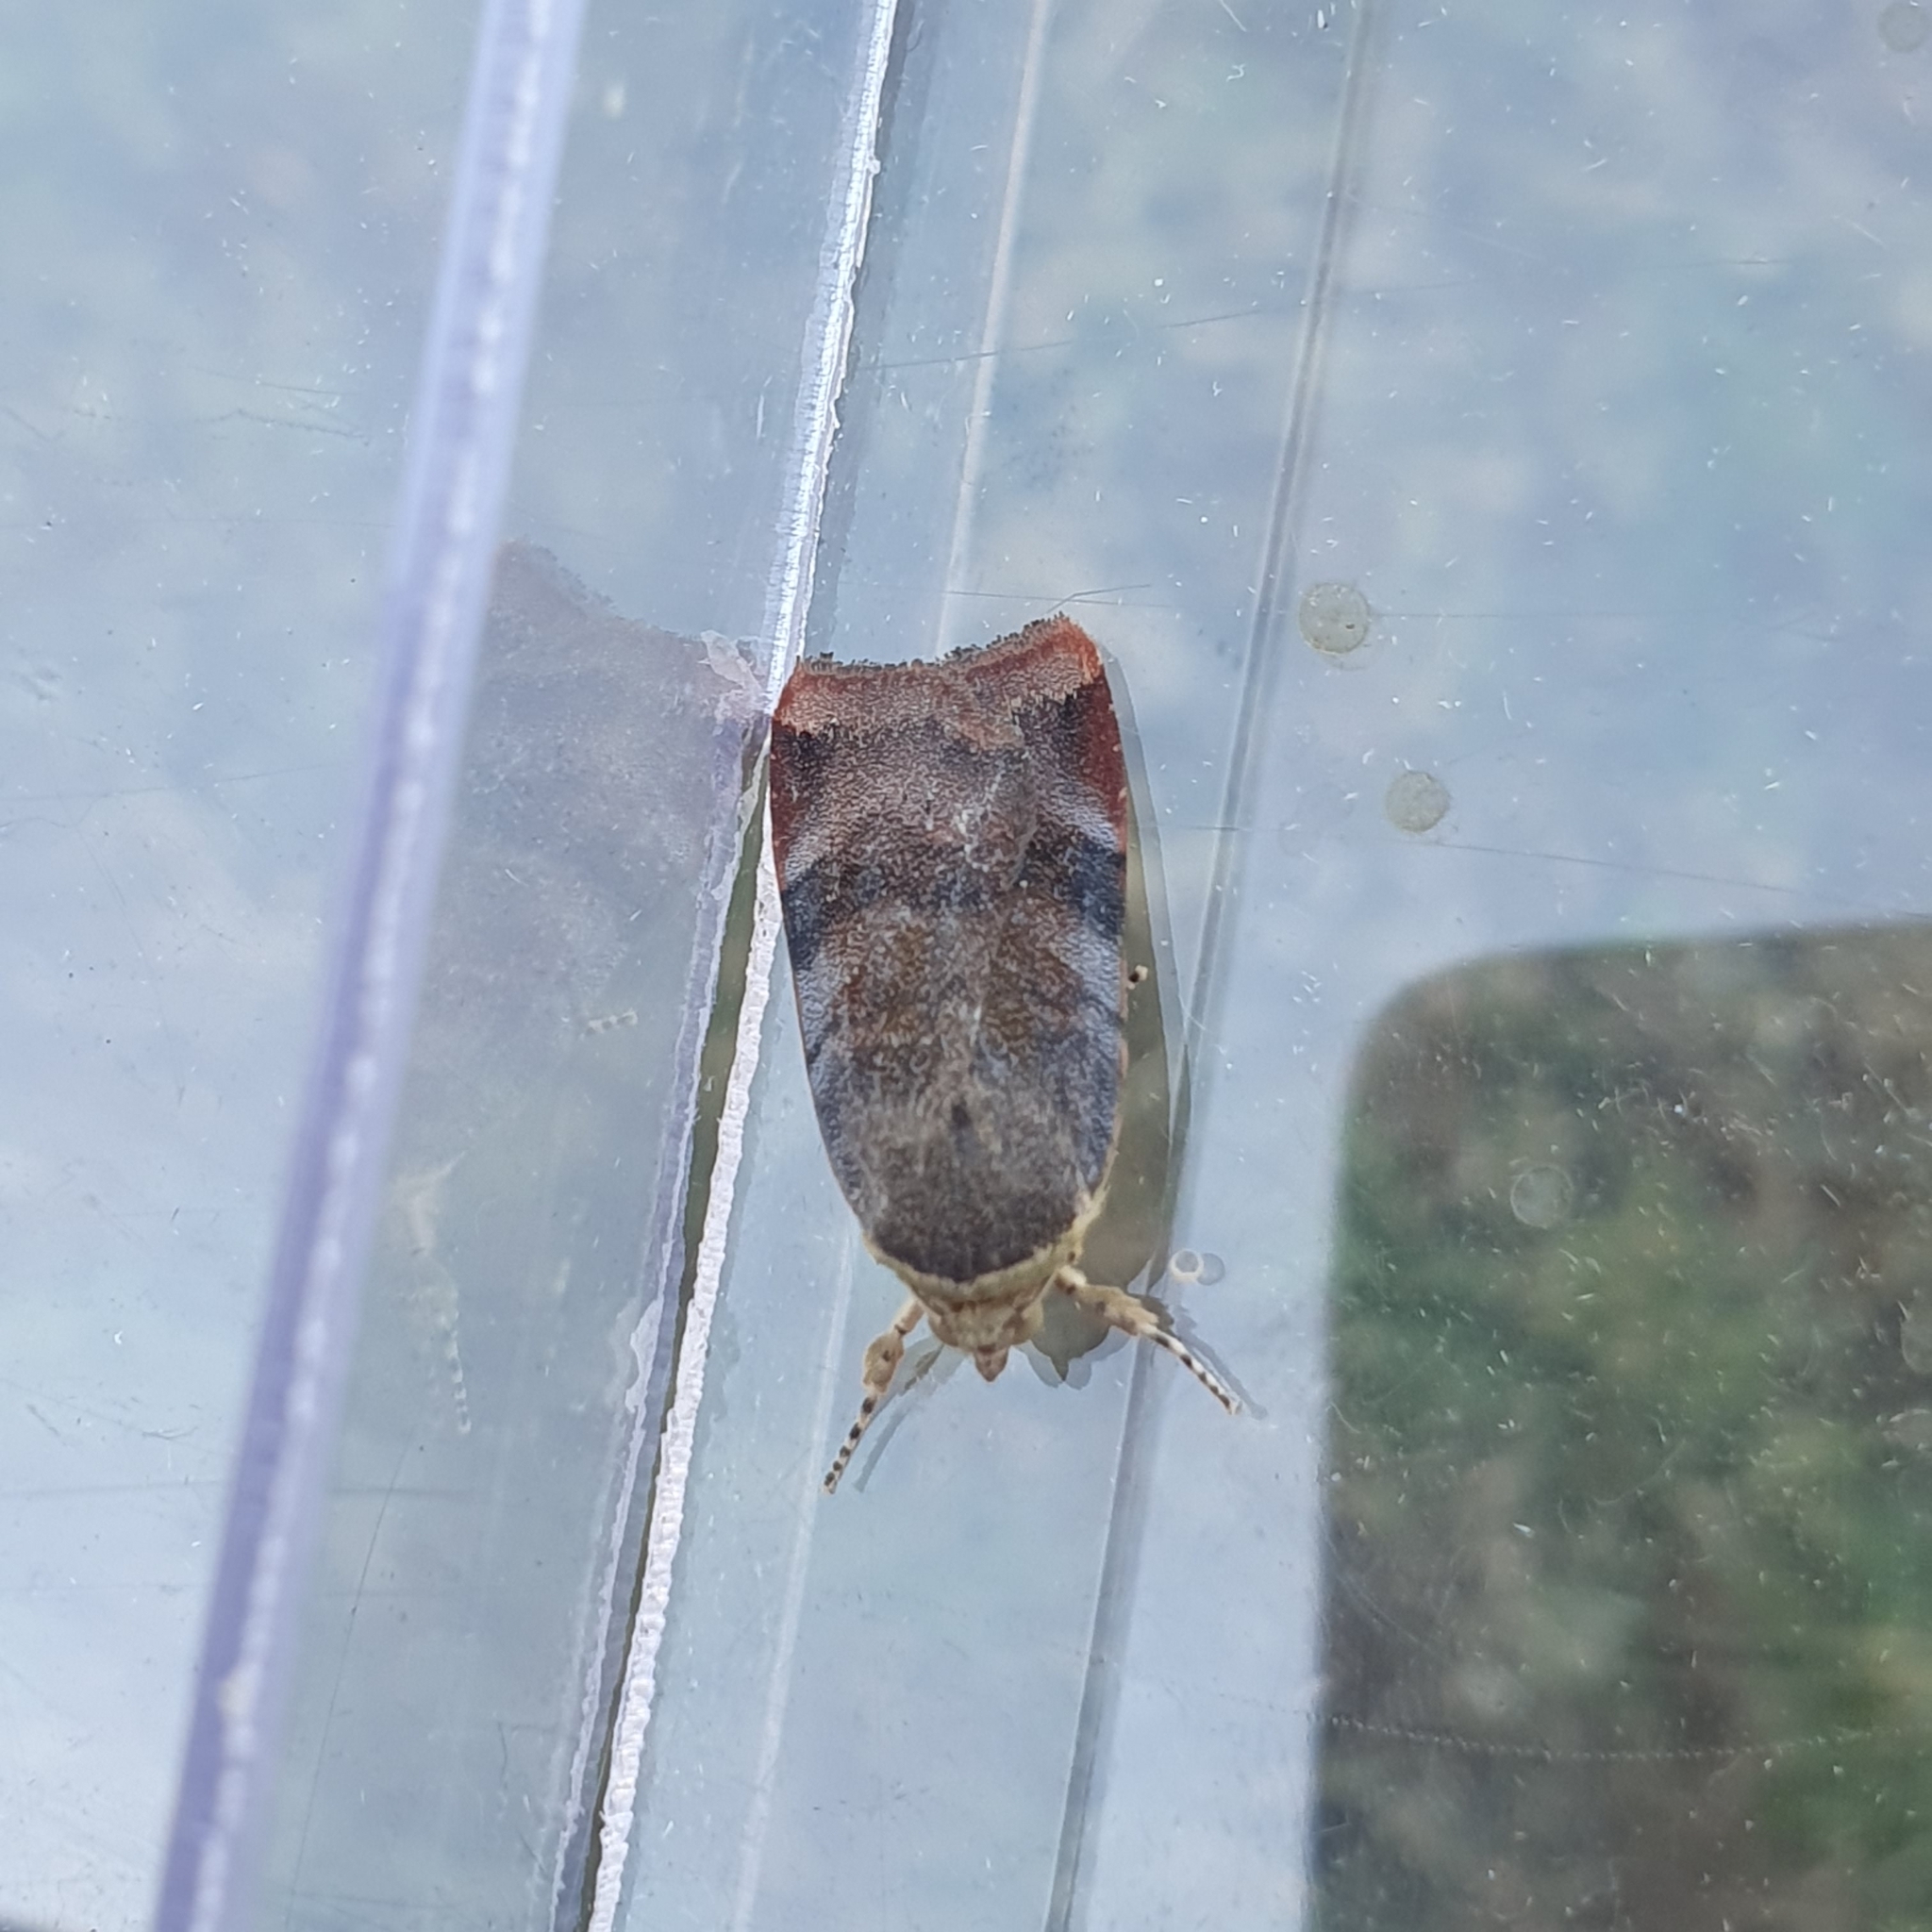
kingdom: Animalia
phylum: Arthropoda
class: Insecta
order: Lepidoptera
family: Noctuidae
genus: Noctua
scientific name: Noctua janthe
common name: Lesser broad-bordered yellow underwing
